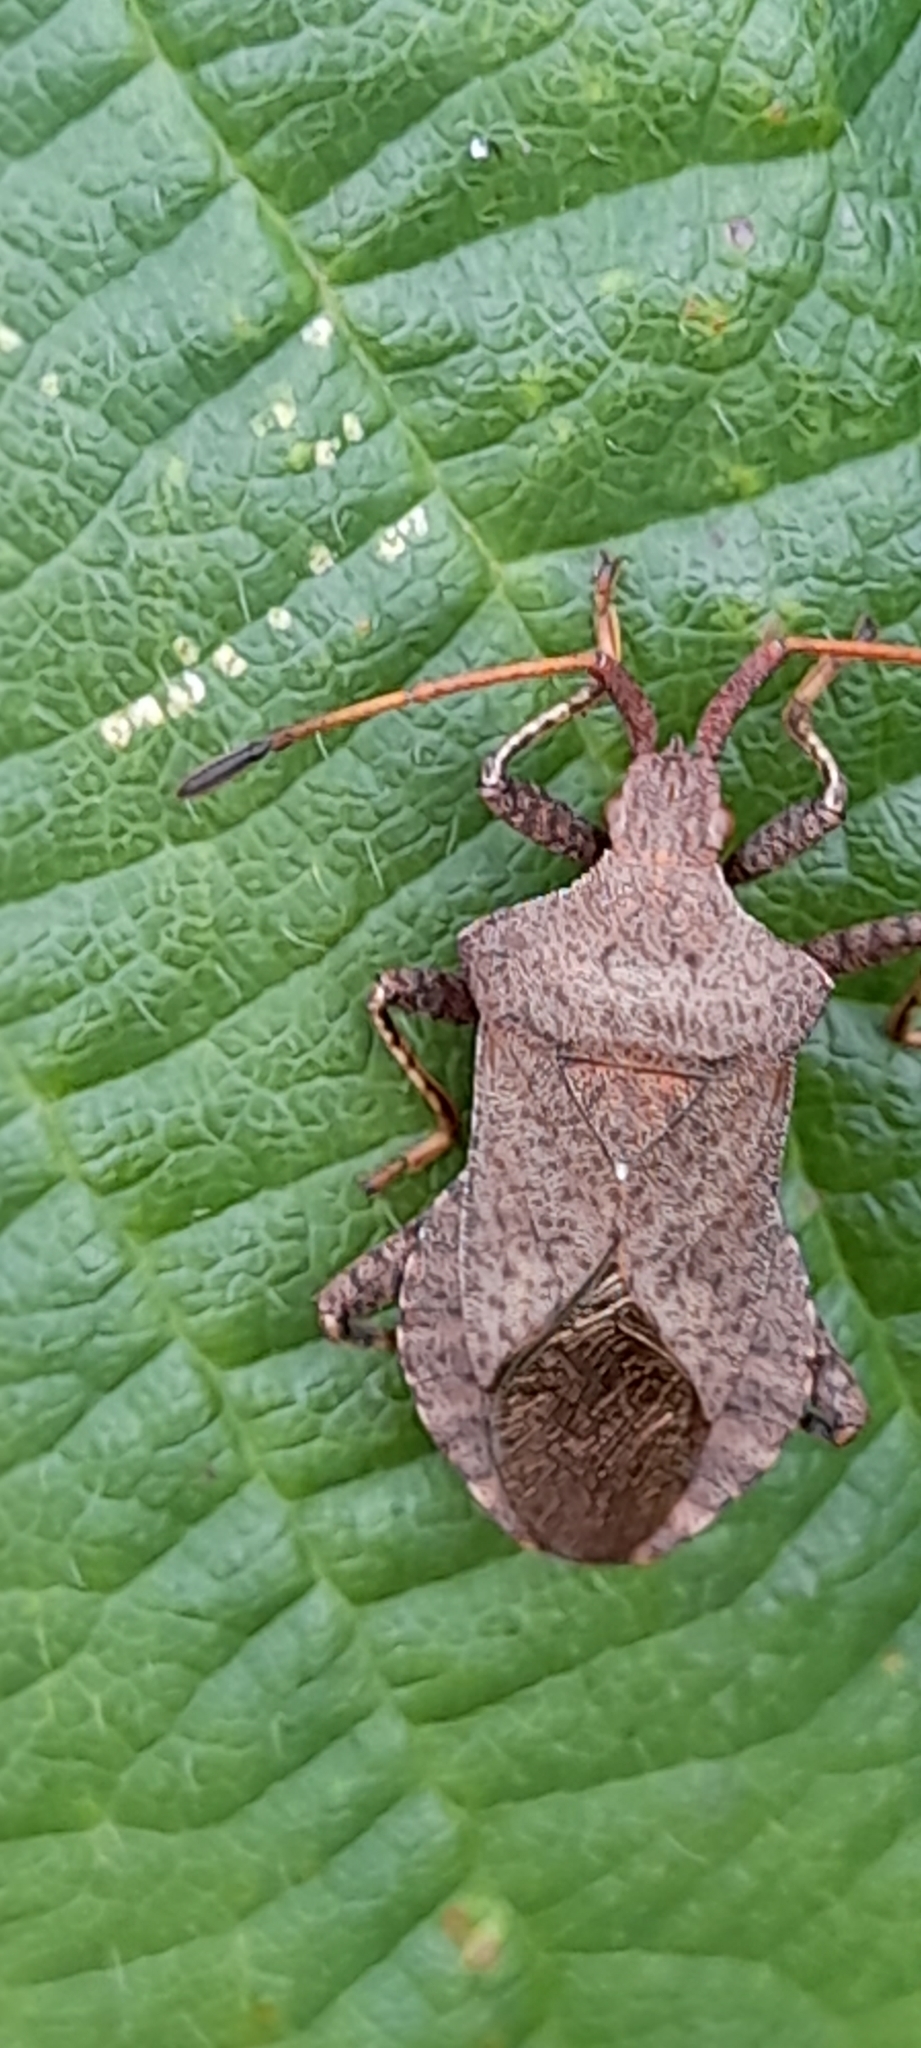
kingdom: Animalia
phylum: Arthropoda
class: Insecta
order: Hemiptera
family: Coreidae
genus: Coreus
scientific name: Coreus marginatus
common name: Dock bug
